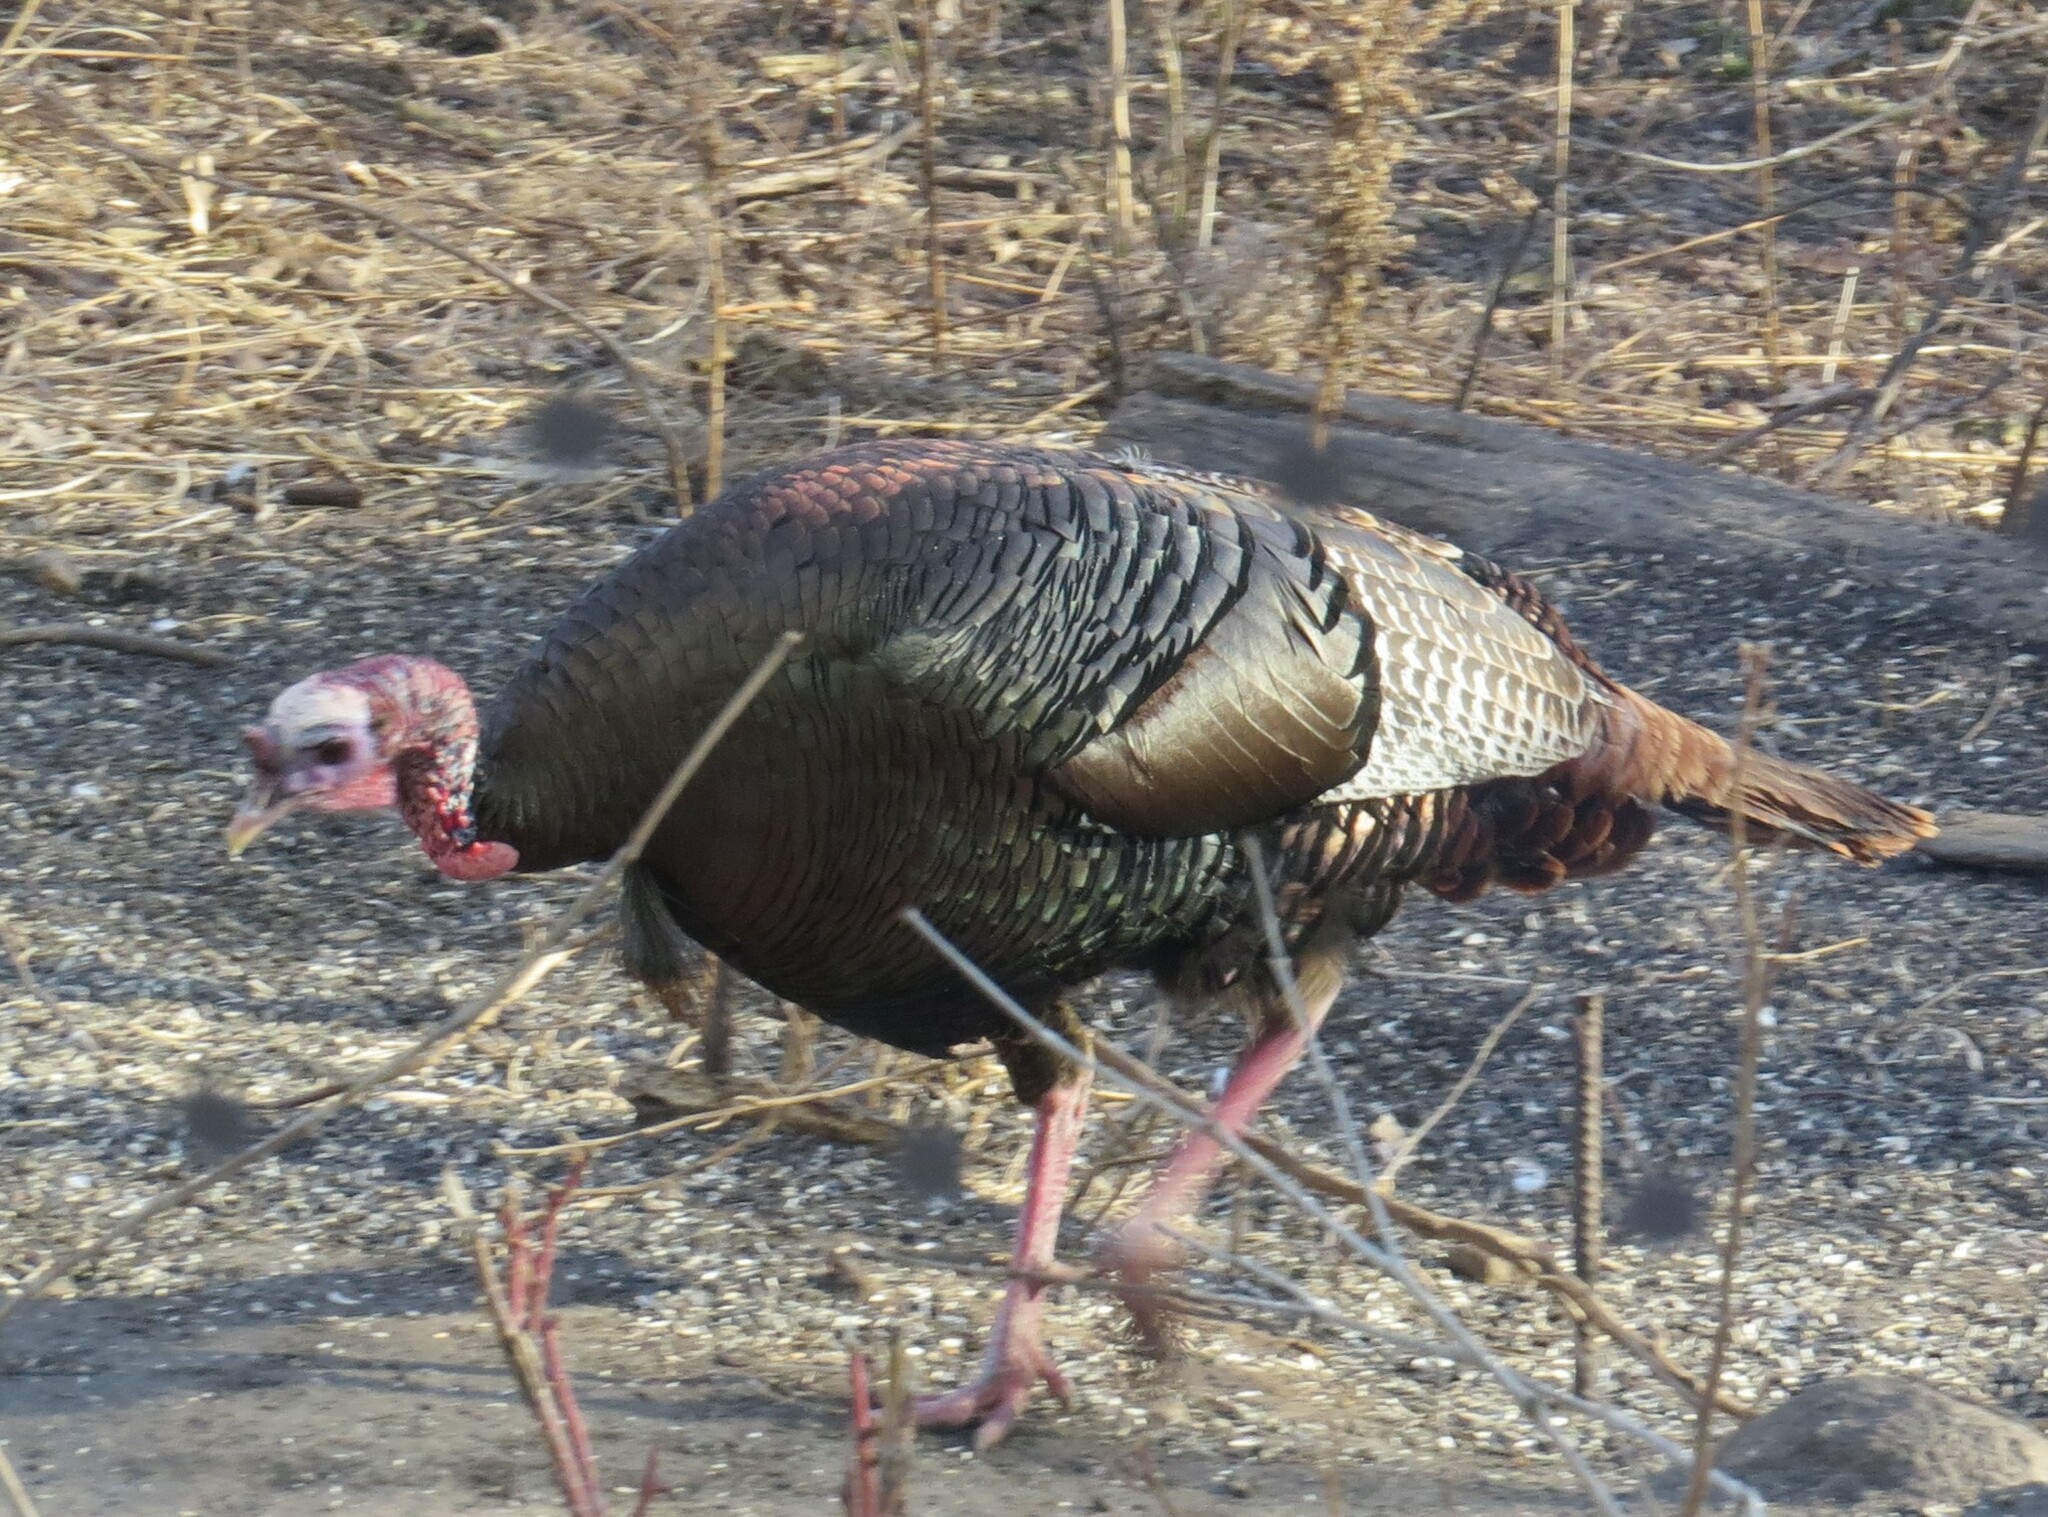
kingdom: Animalia
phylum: Chordata
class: Aves
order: Galliformes
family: Phasianidae
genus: Meleagris
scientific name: Meleagris gallopavo
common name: Wild turkey
